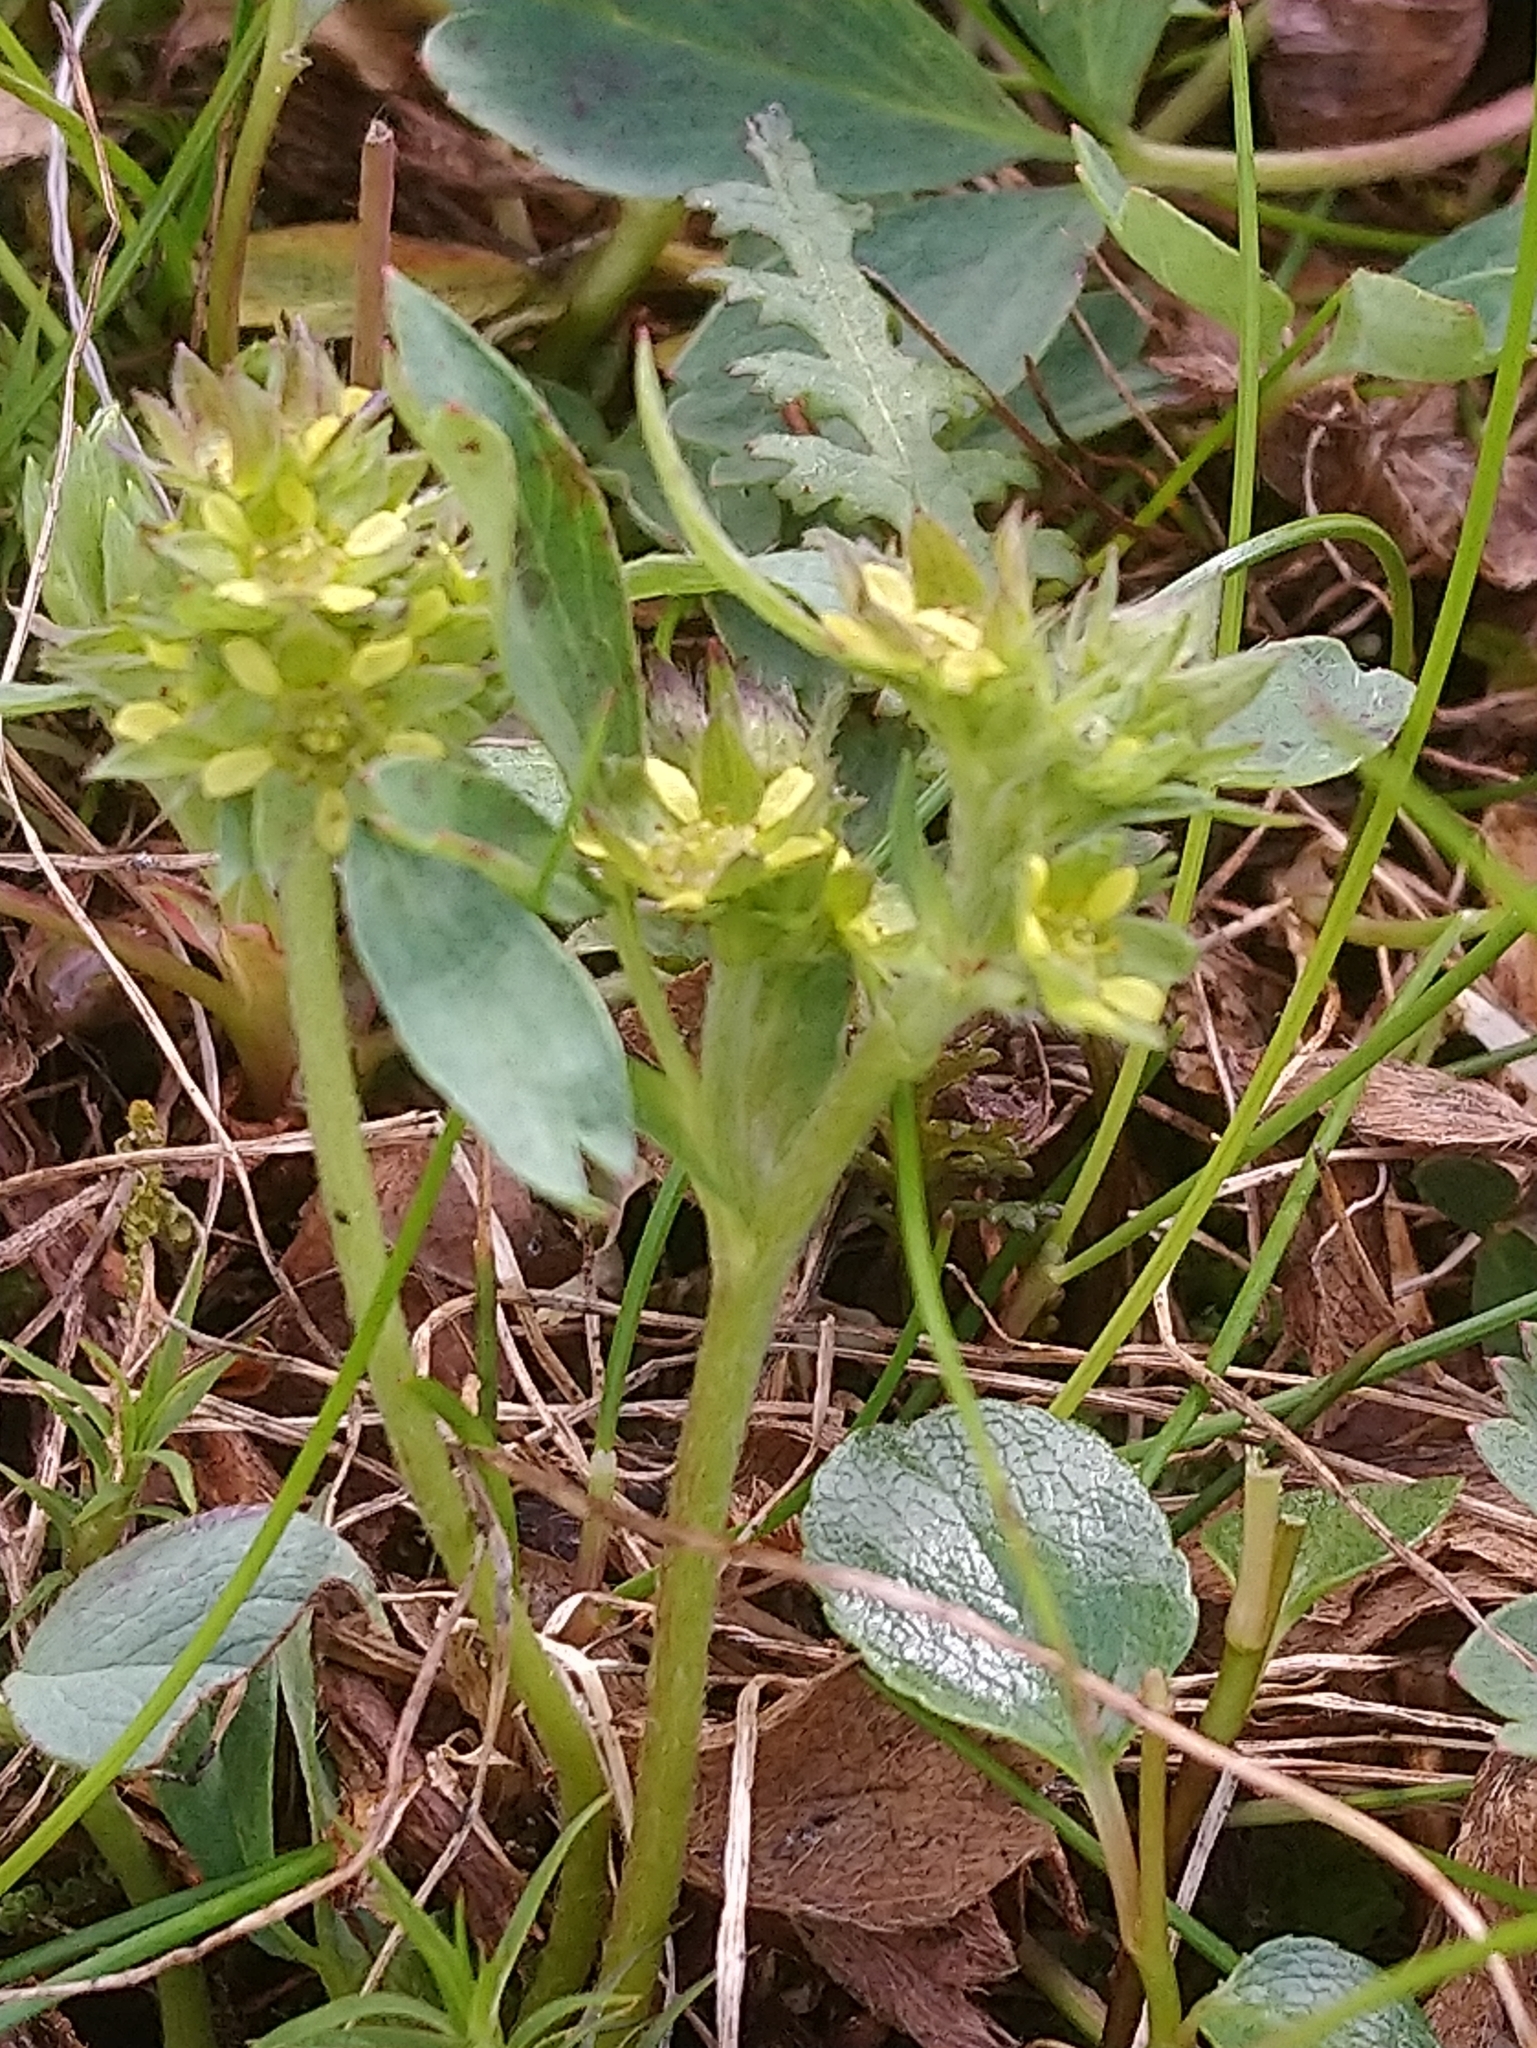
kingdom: Plantae
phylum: Tracheophyta
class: Magnoliopsida
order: Rosales
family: Rosaceae
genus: Sibbaldia
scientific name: Sibbaldia procumbens
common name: Creeping sibbaldia
